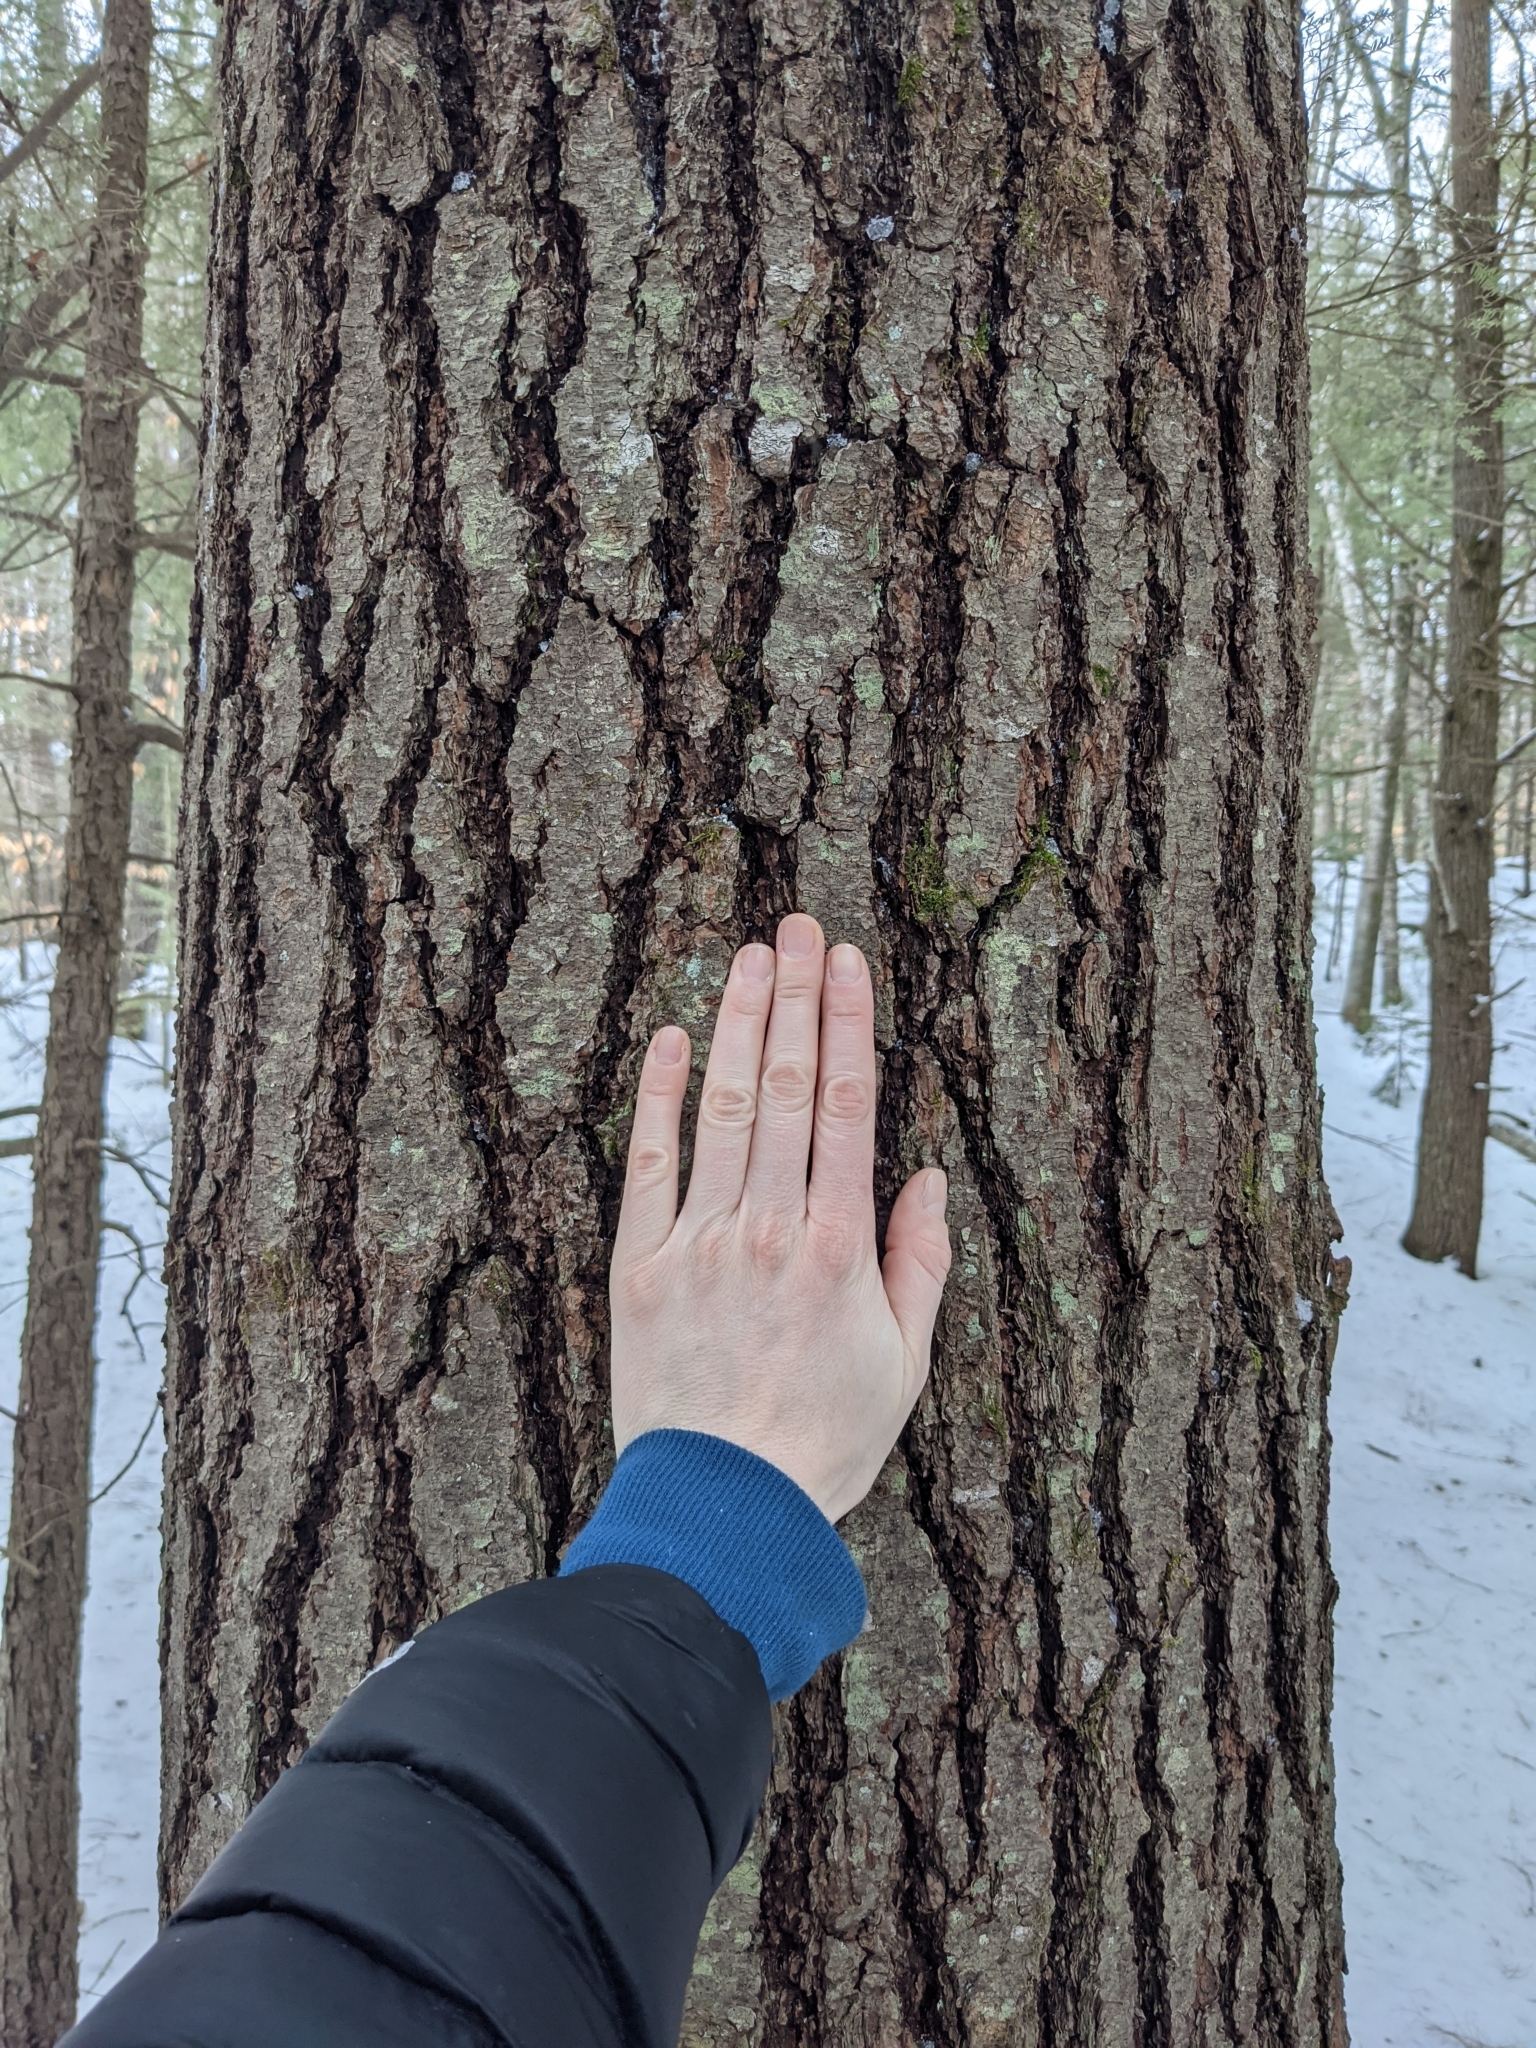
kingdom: Plantae
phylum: Tracheophyta
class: Pinopsida
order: Pinales
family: Pinaceae
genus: Pinus
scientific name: Pinus strobus
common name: Weymouth pine
